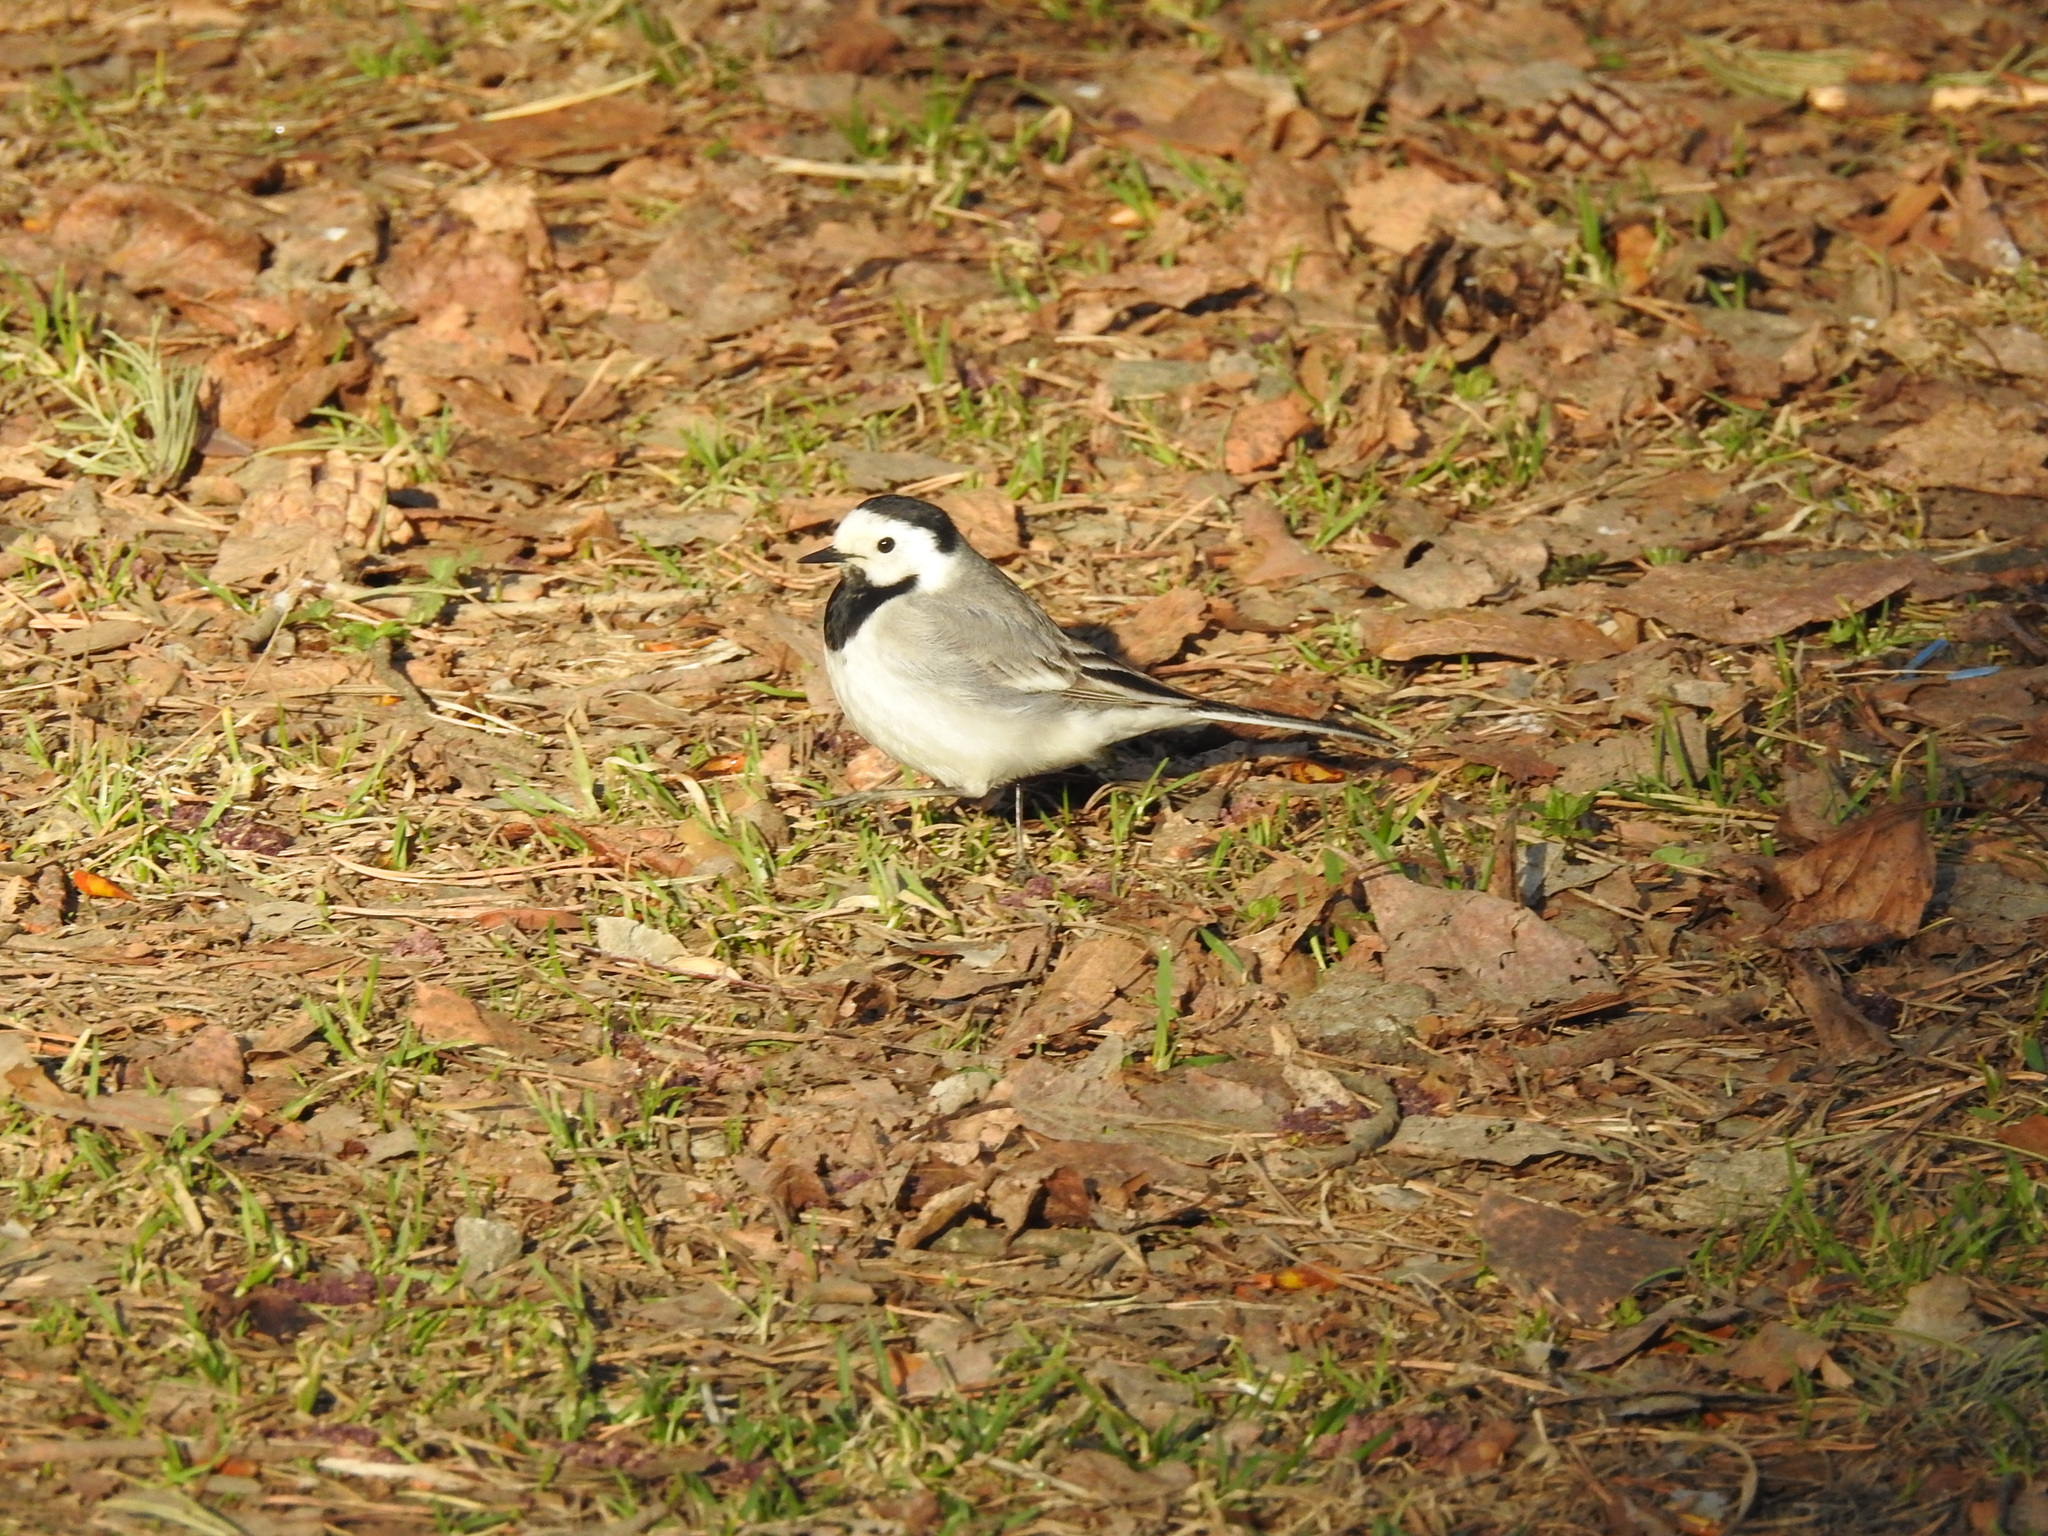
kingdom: Animalia
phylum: Chordata
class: Aves
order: Passeriformes
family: Motacillidae
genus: Motacilla
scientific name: Motacilla alba
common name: White wagtail
